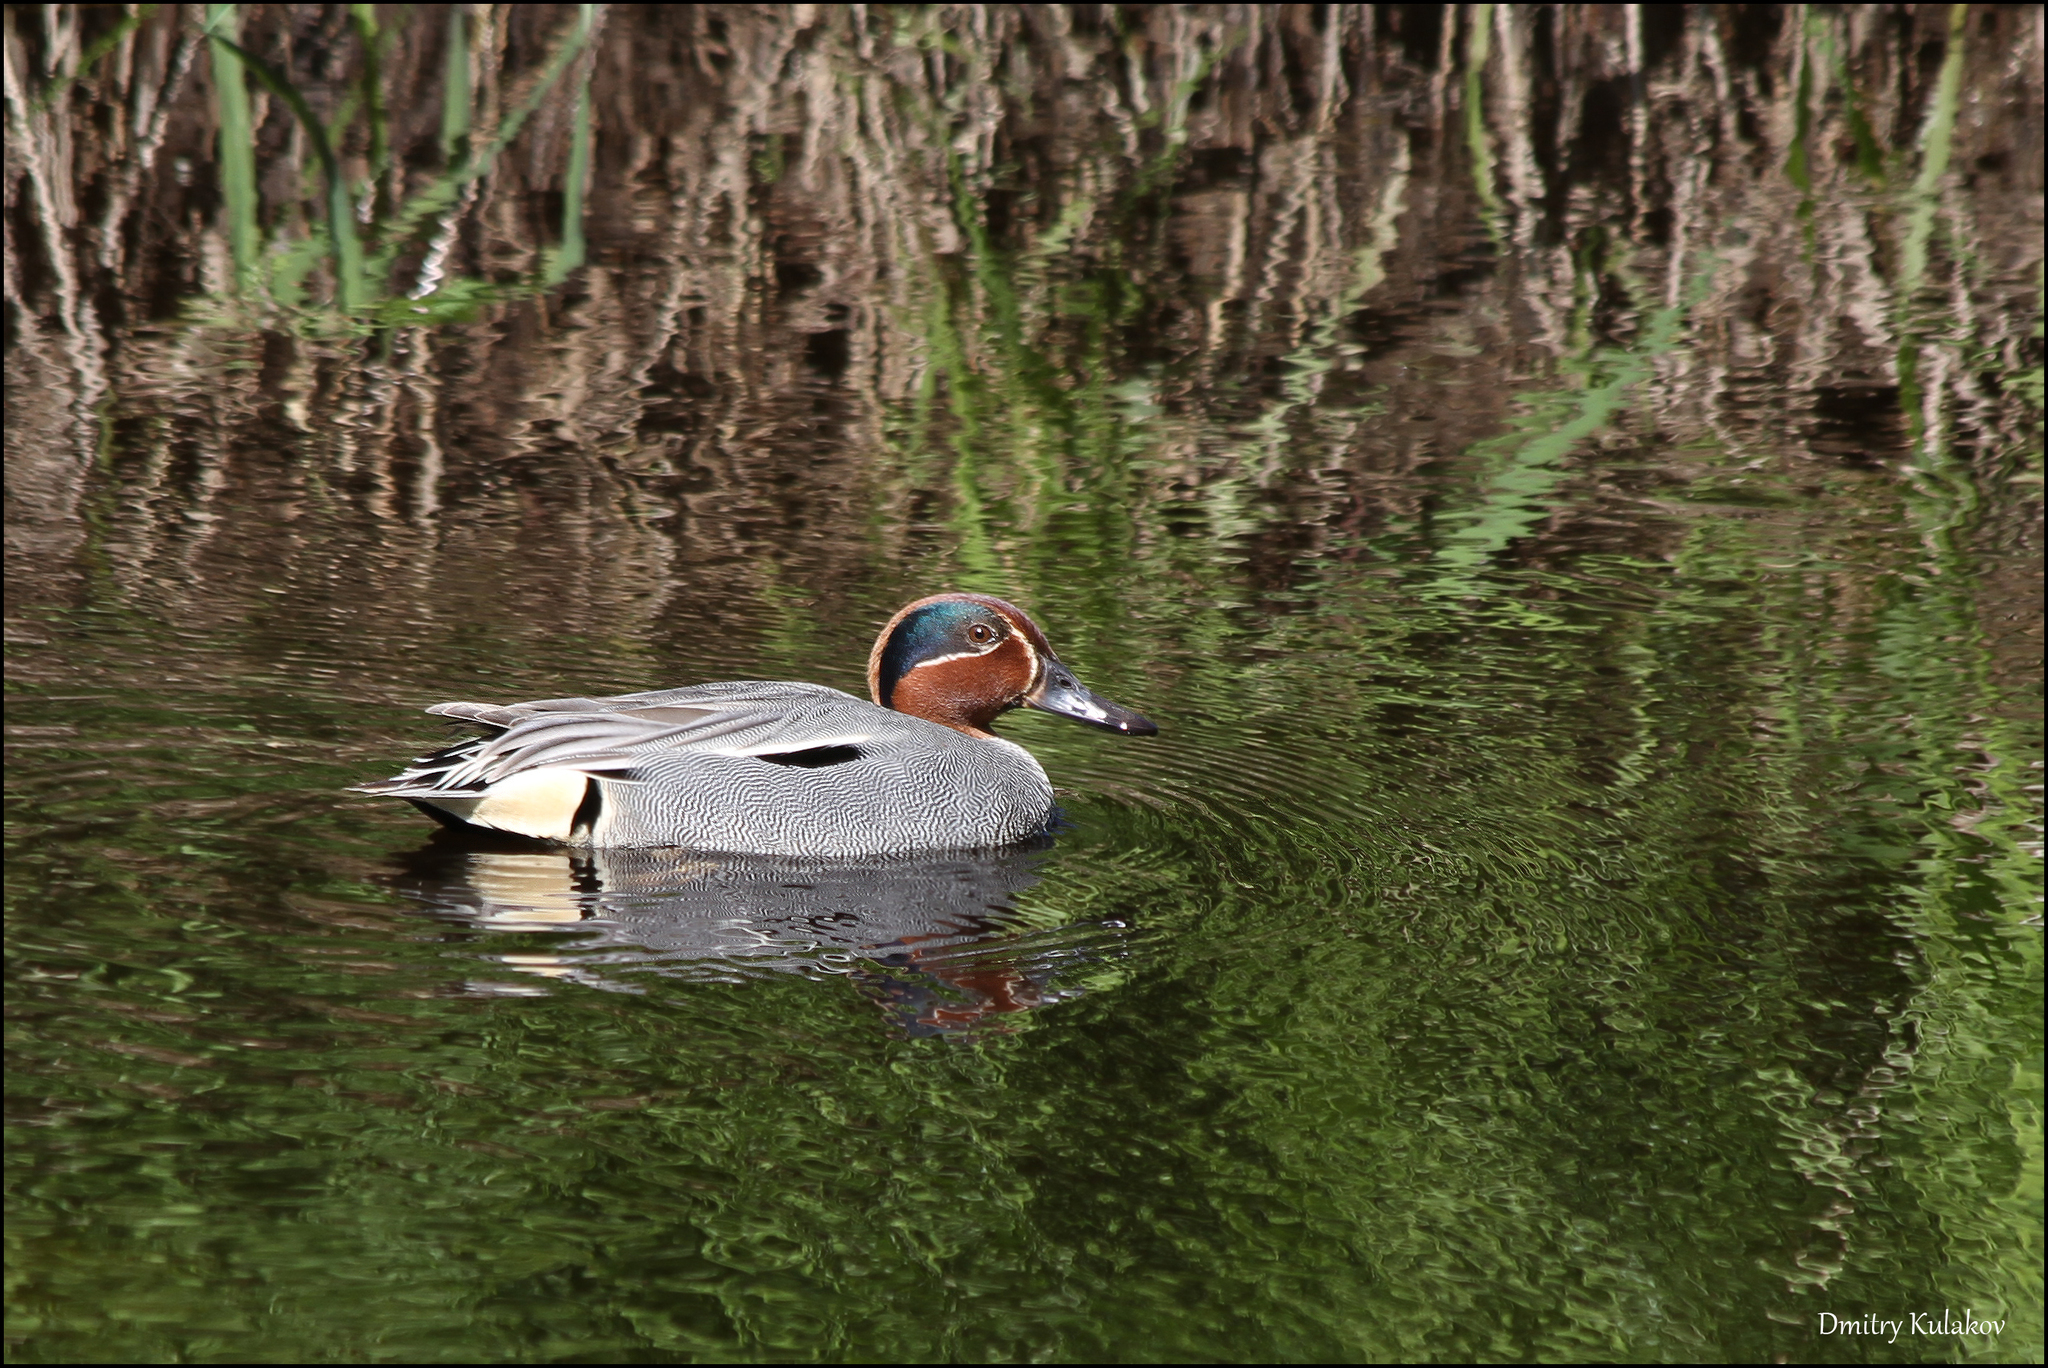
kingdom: Animalia
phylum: Chordata
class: Aves
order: Anseriformes
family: Anatidae
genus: Anas
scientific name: Anas crecca
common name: Eurasian teal
